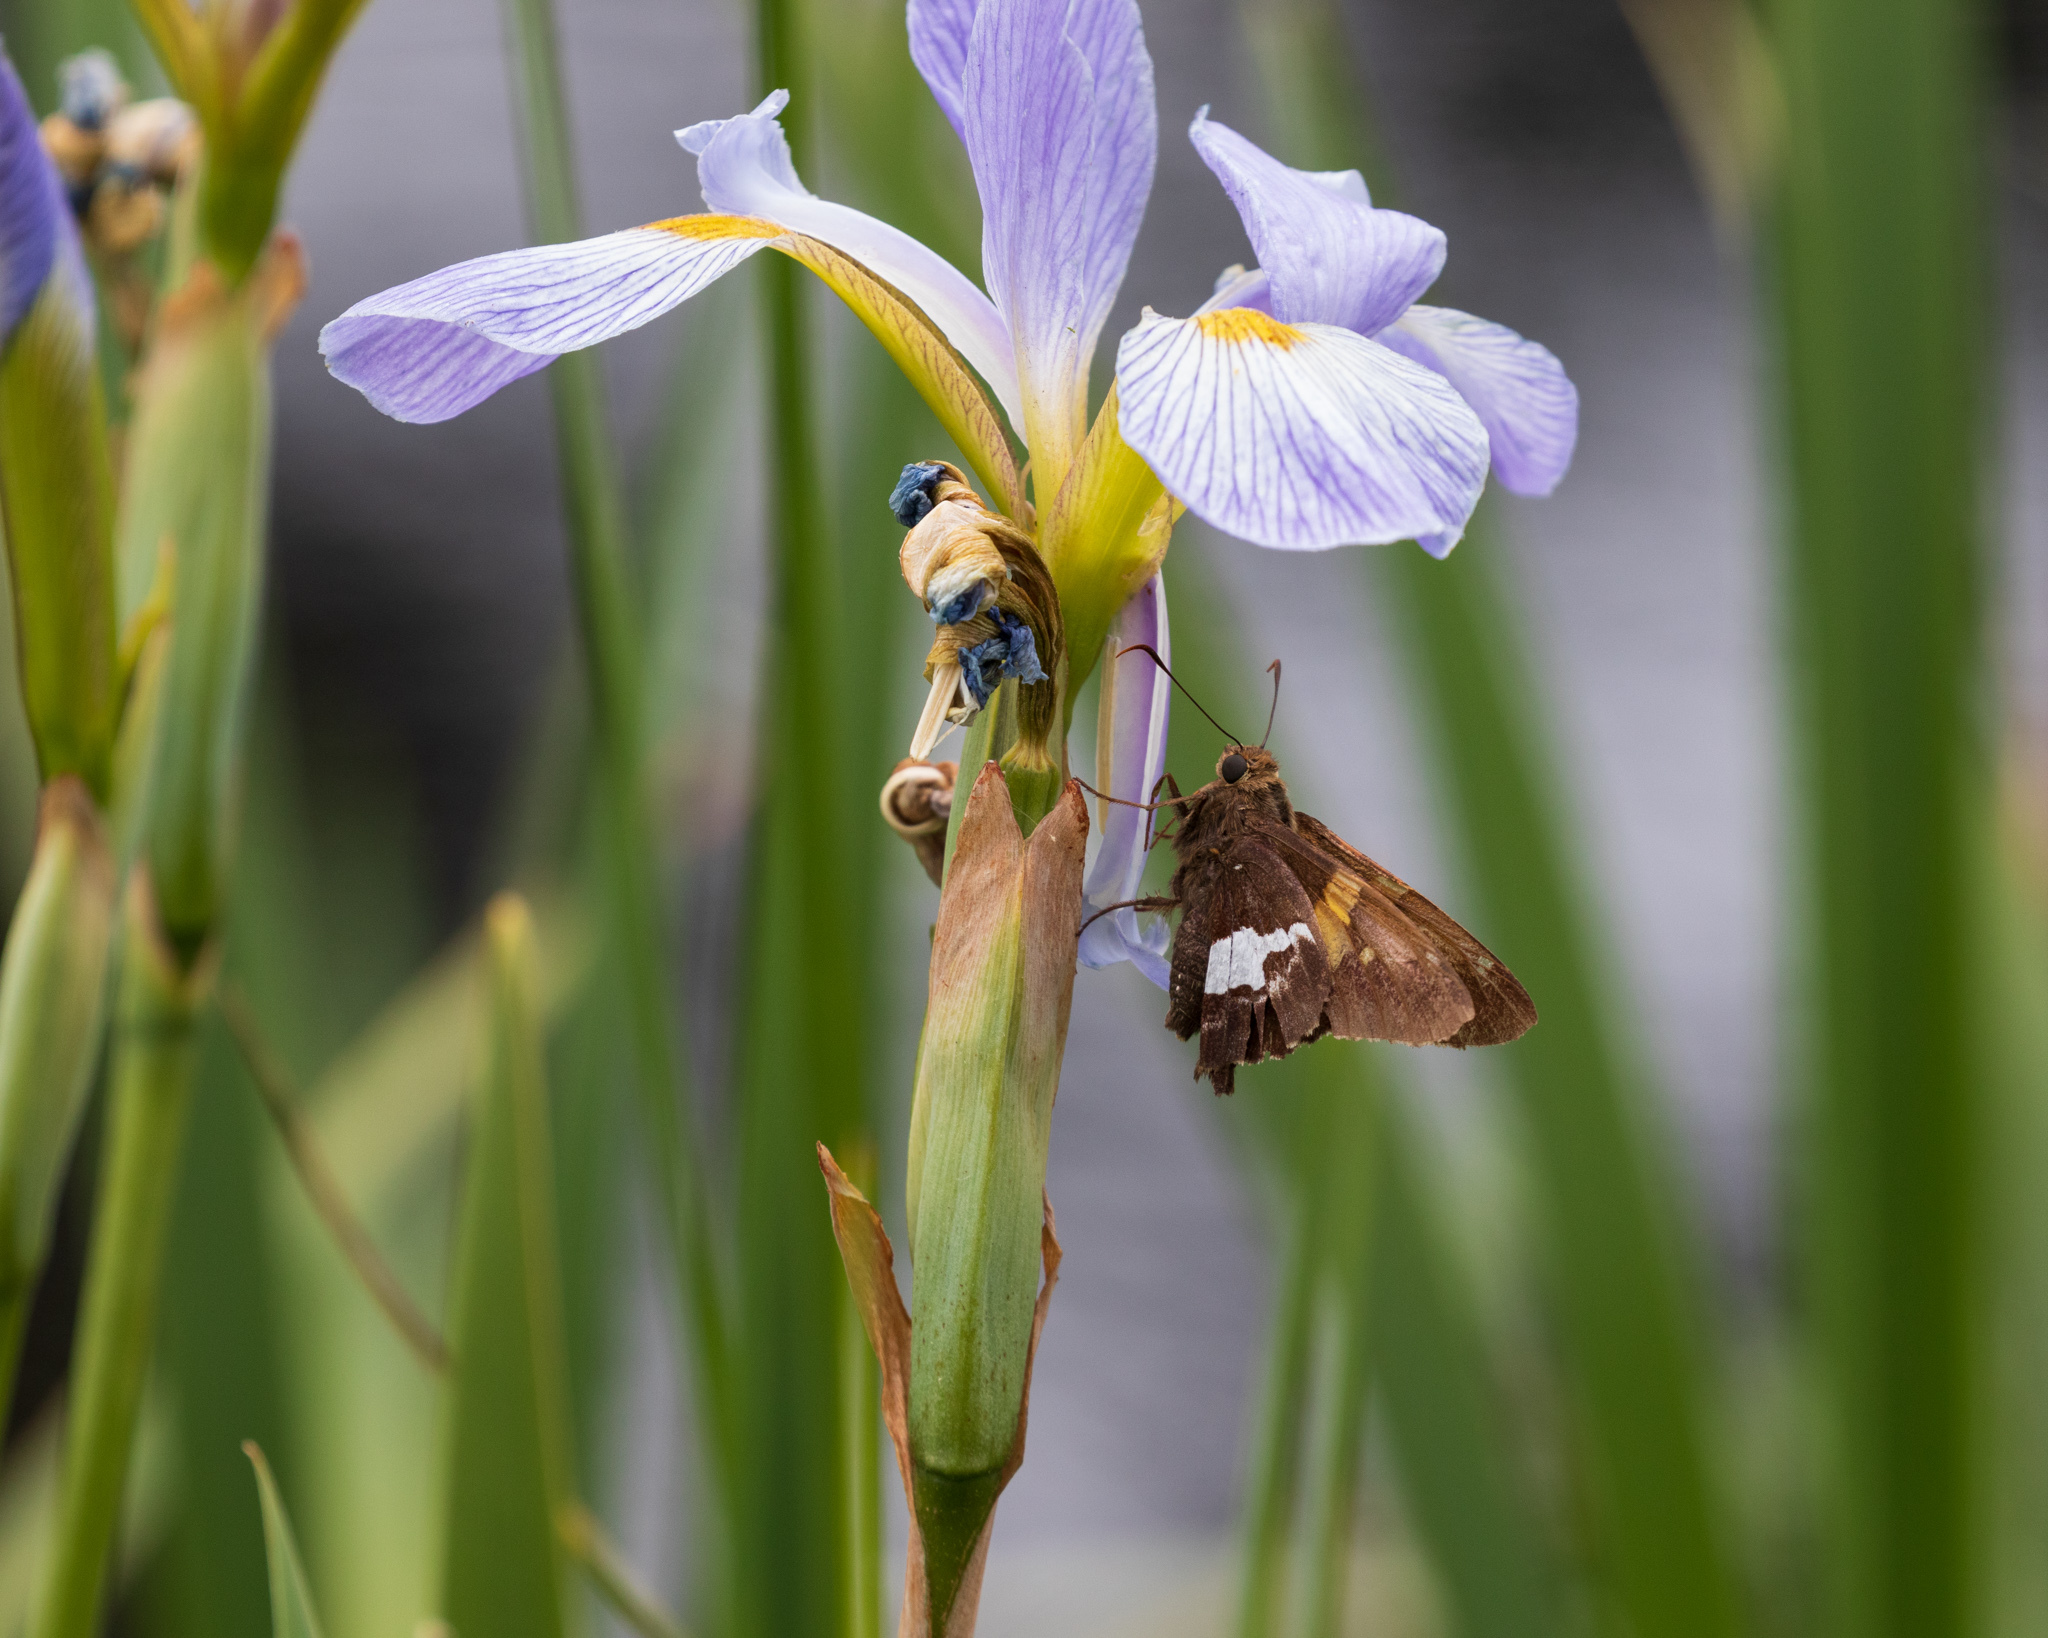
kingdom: Animalia
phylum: Arthropoda
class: Insecta
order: Lepidoptera
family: Hesperiidae
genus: Epargyreus
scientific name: Epargyreus clarus
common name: Silver-spotted skipper
